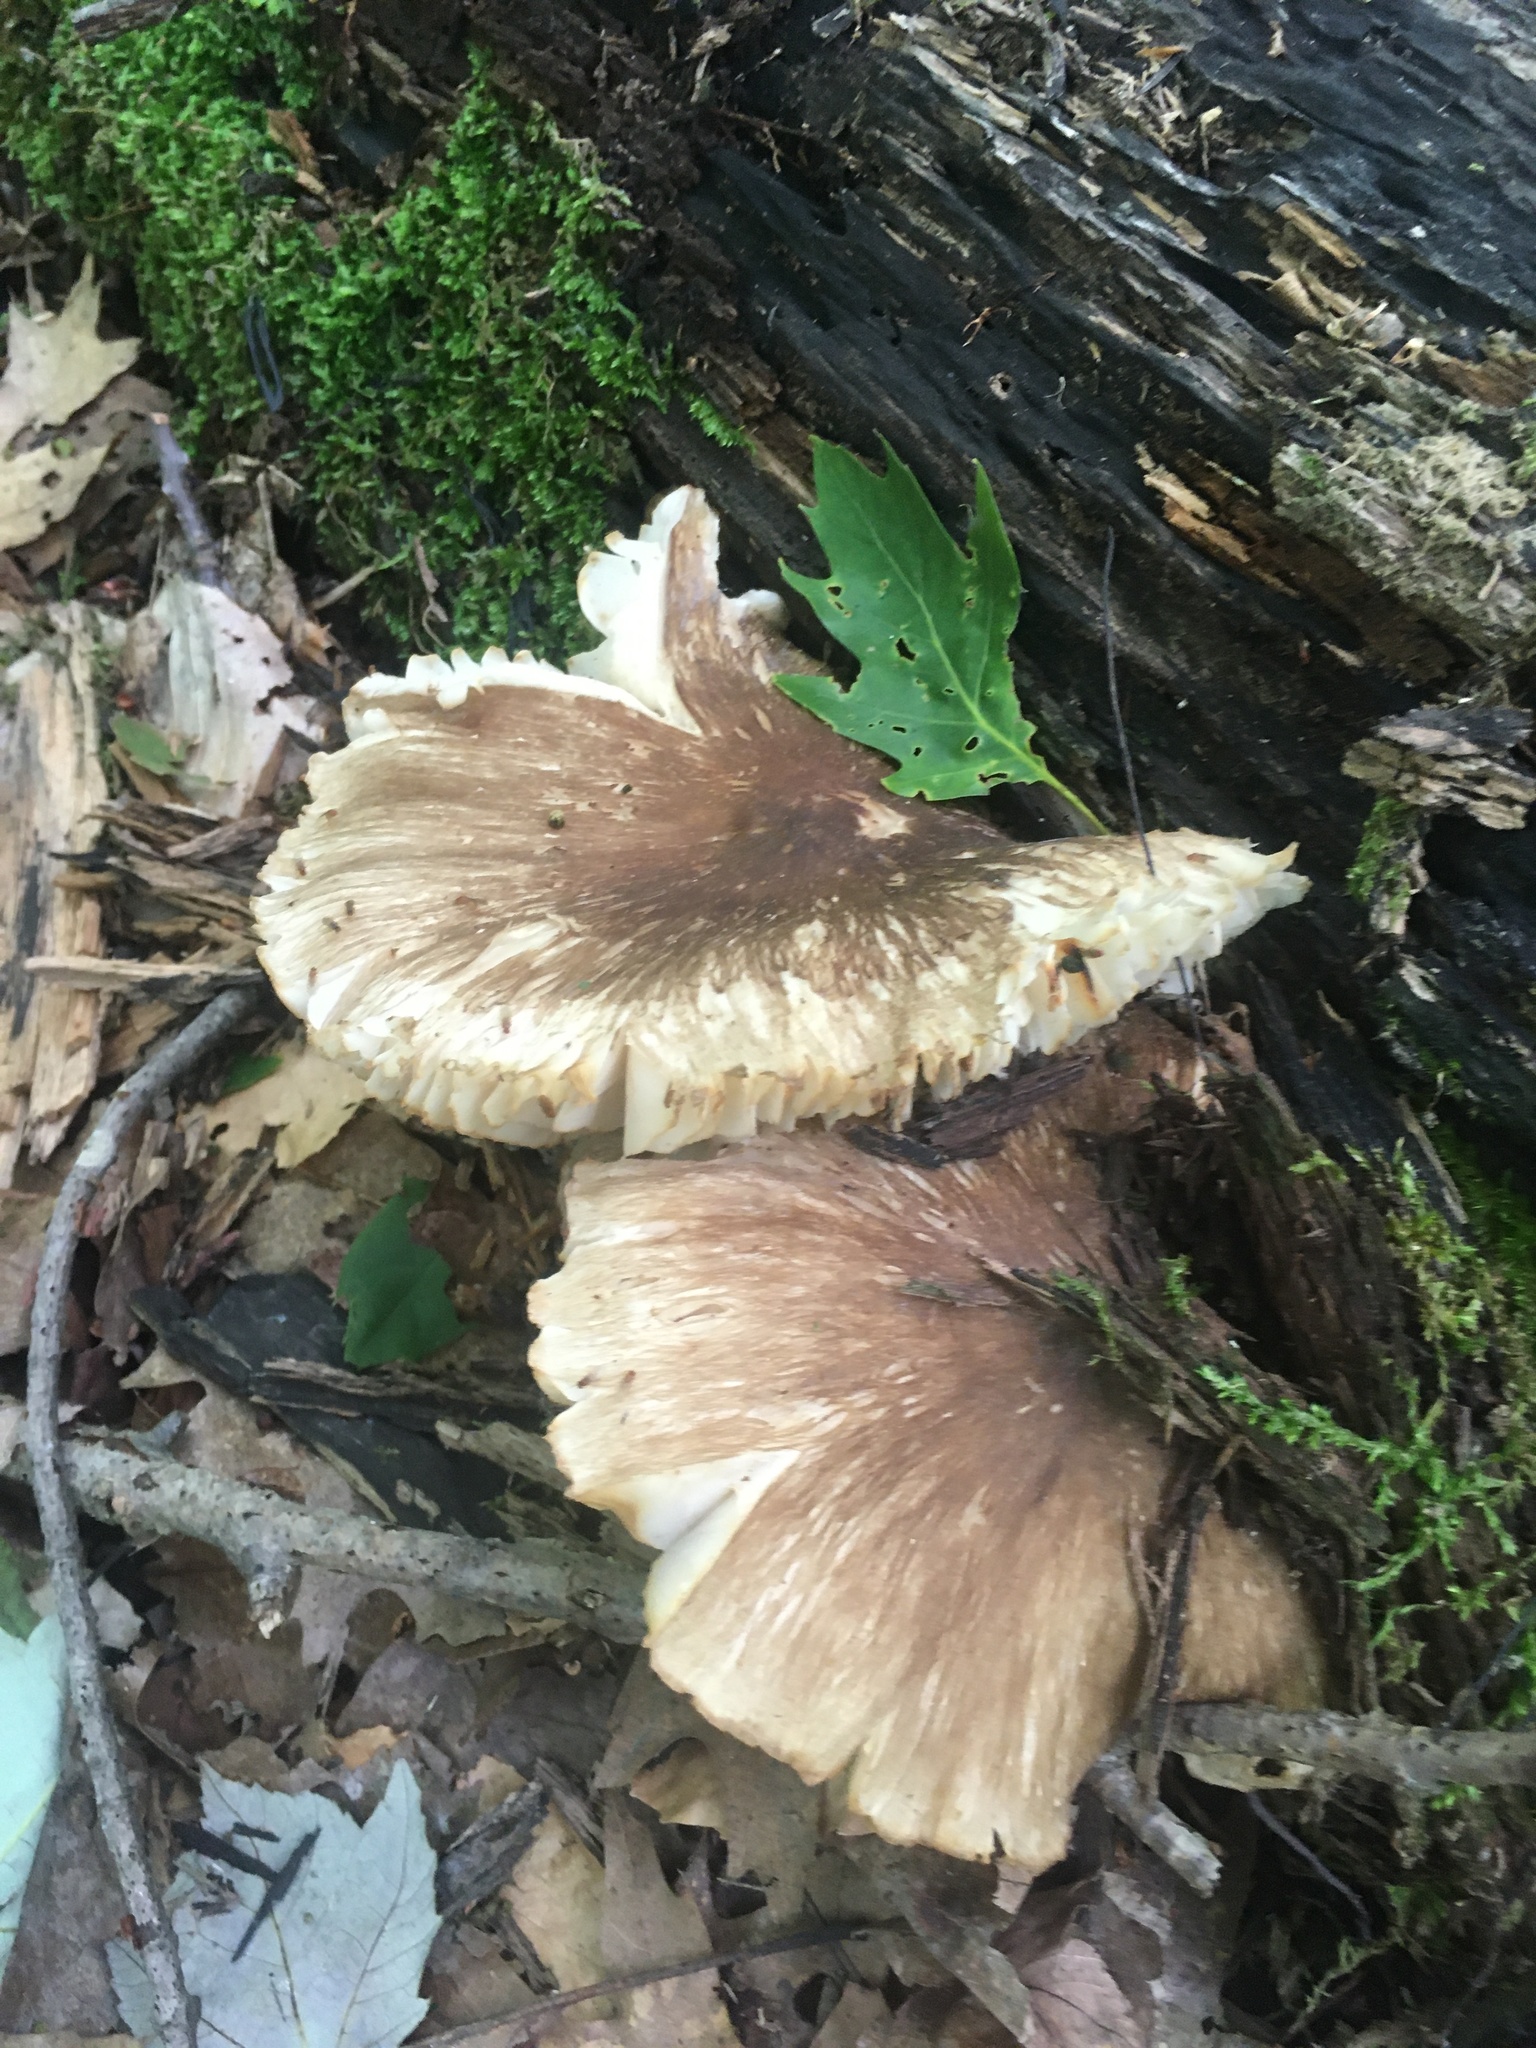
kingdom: Fungi
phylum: Basidiomycota
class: Agaricomycetes
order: Agaricales
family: Tricholomataceae
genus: Megacollybia
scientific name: Megacollybia rodmanii
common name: Eastern american platterful mushroom
